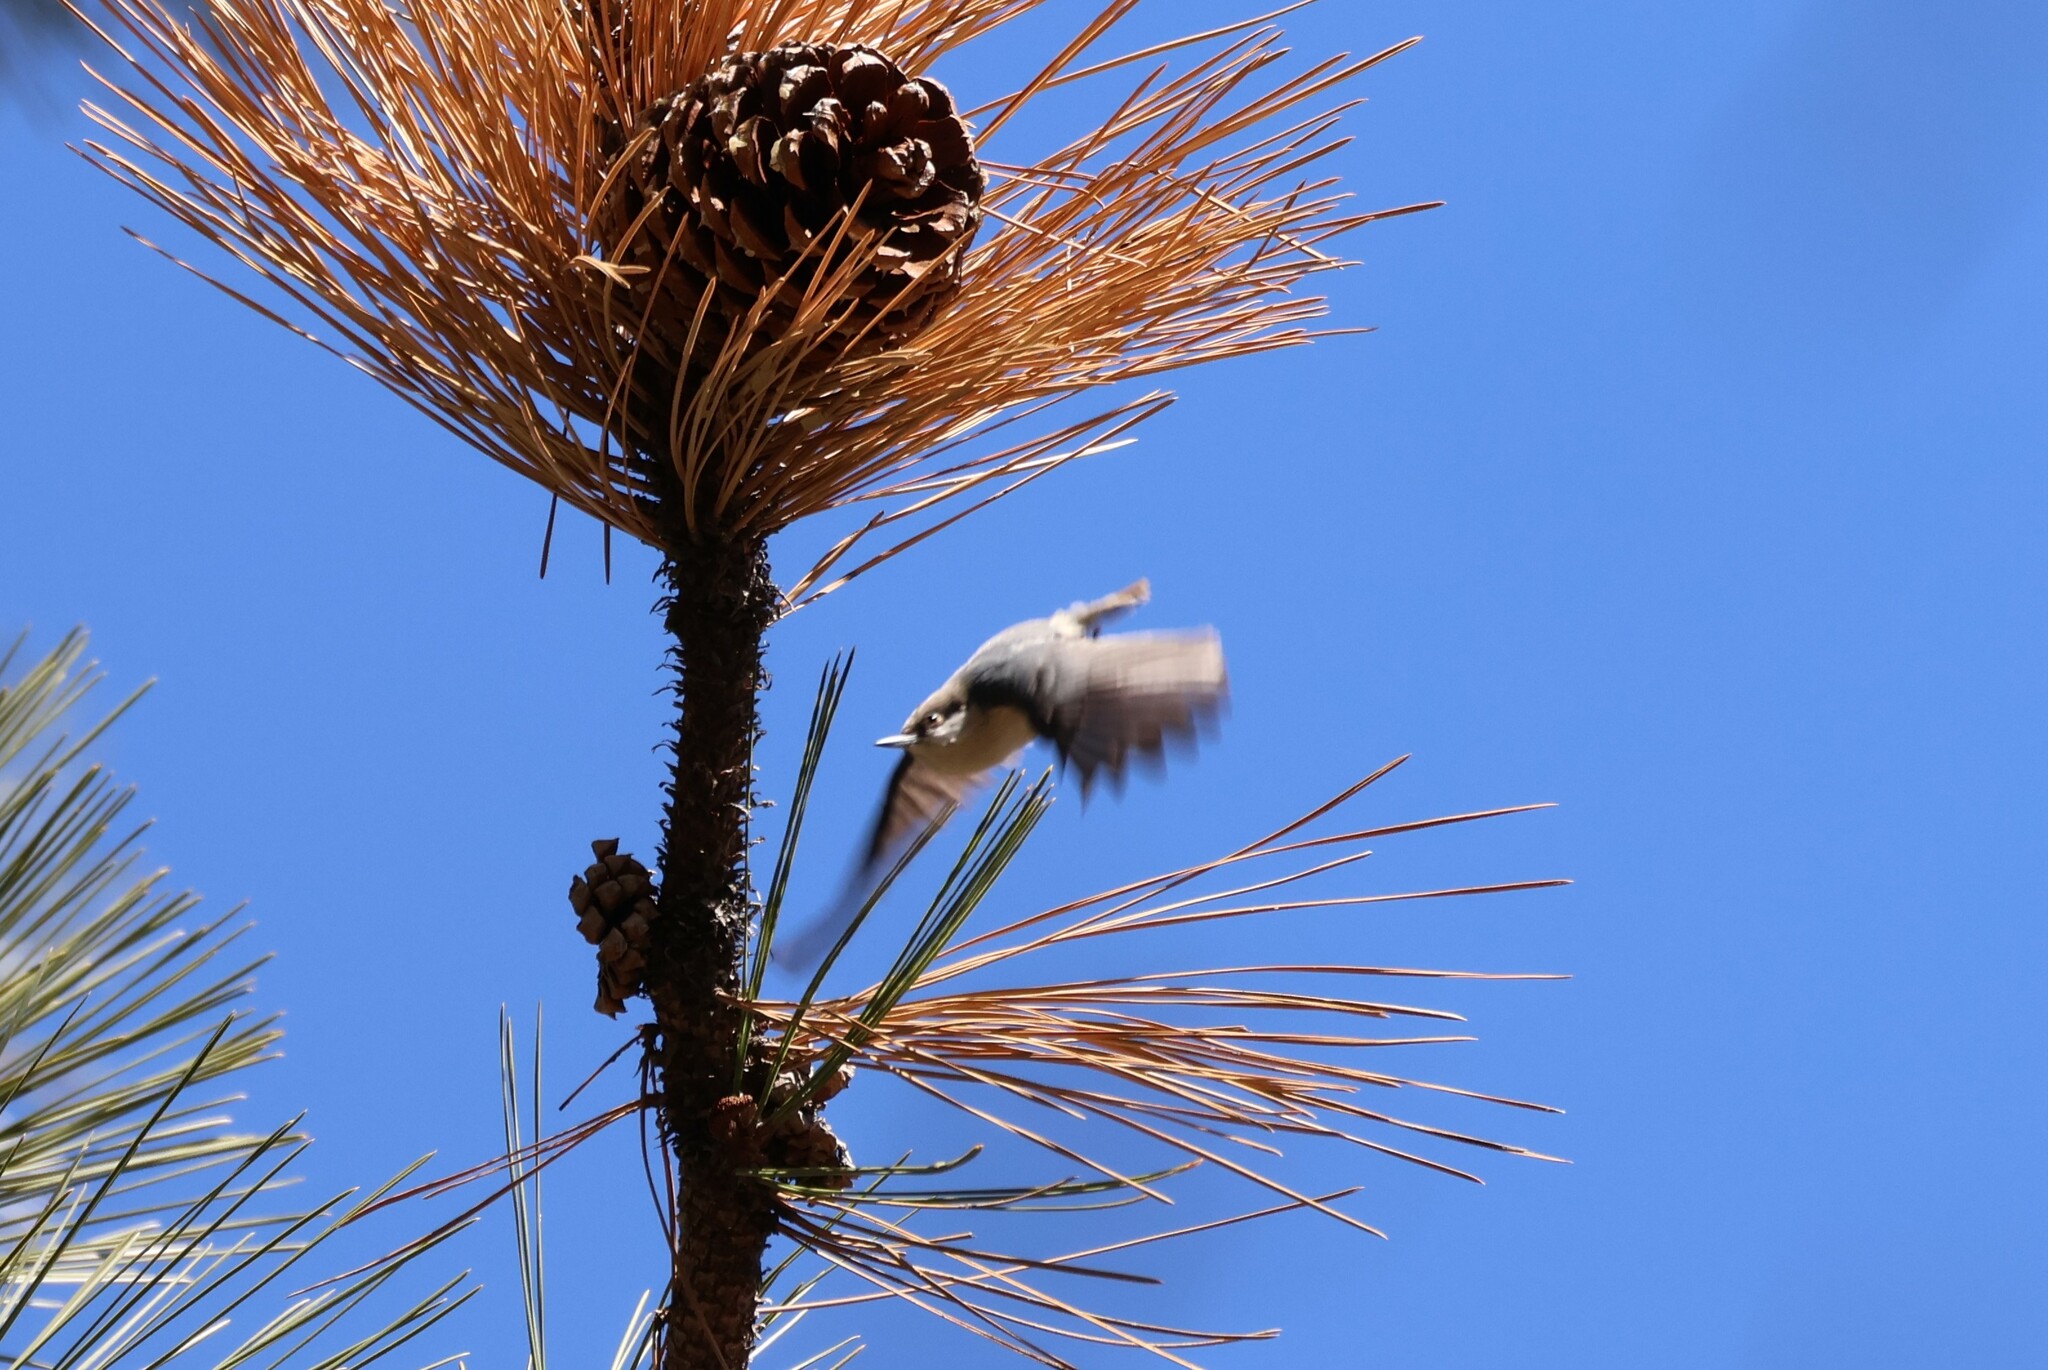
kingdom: Animalia
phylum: Chordata
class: Aves
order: Passeriformes
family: Sittidae
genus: Sitta
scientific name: Sitta pygmaea
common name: Pygmy nuthatch
